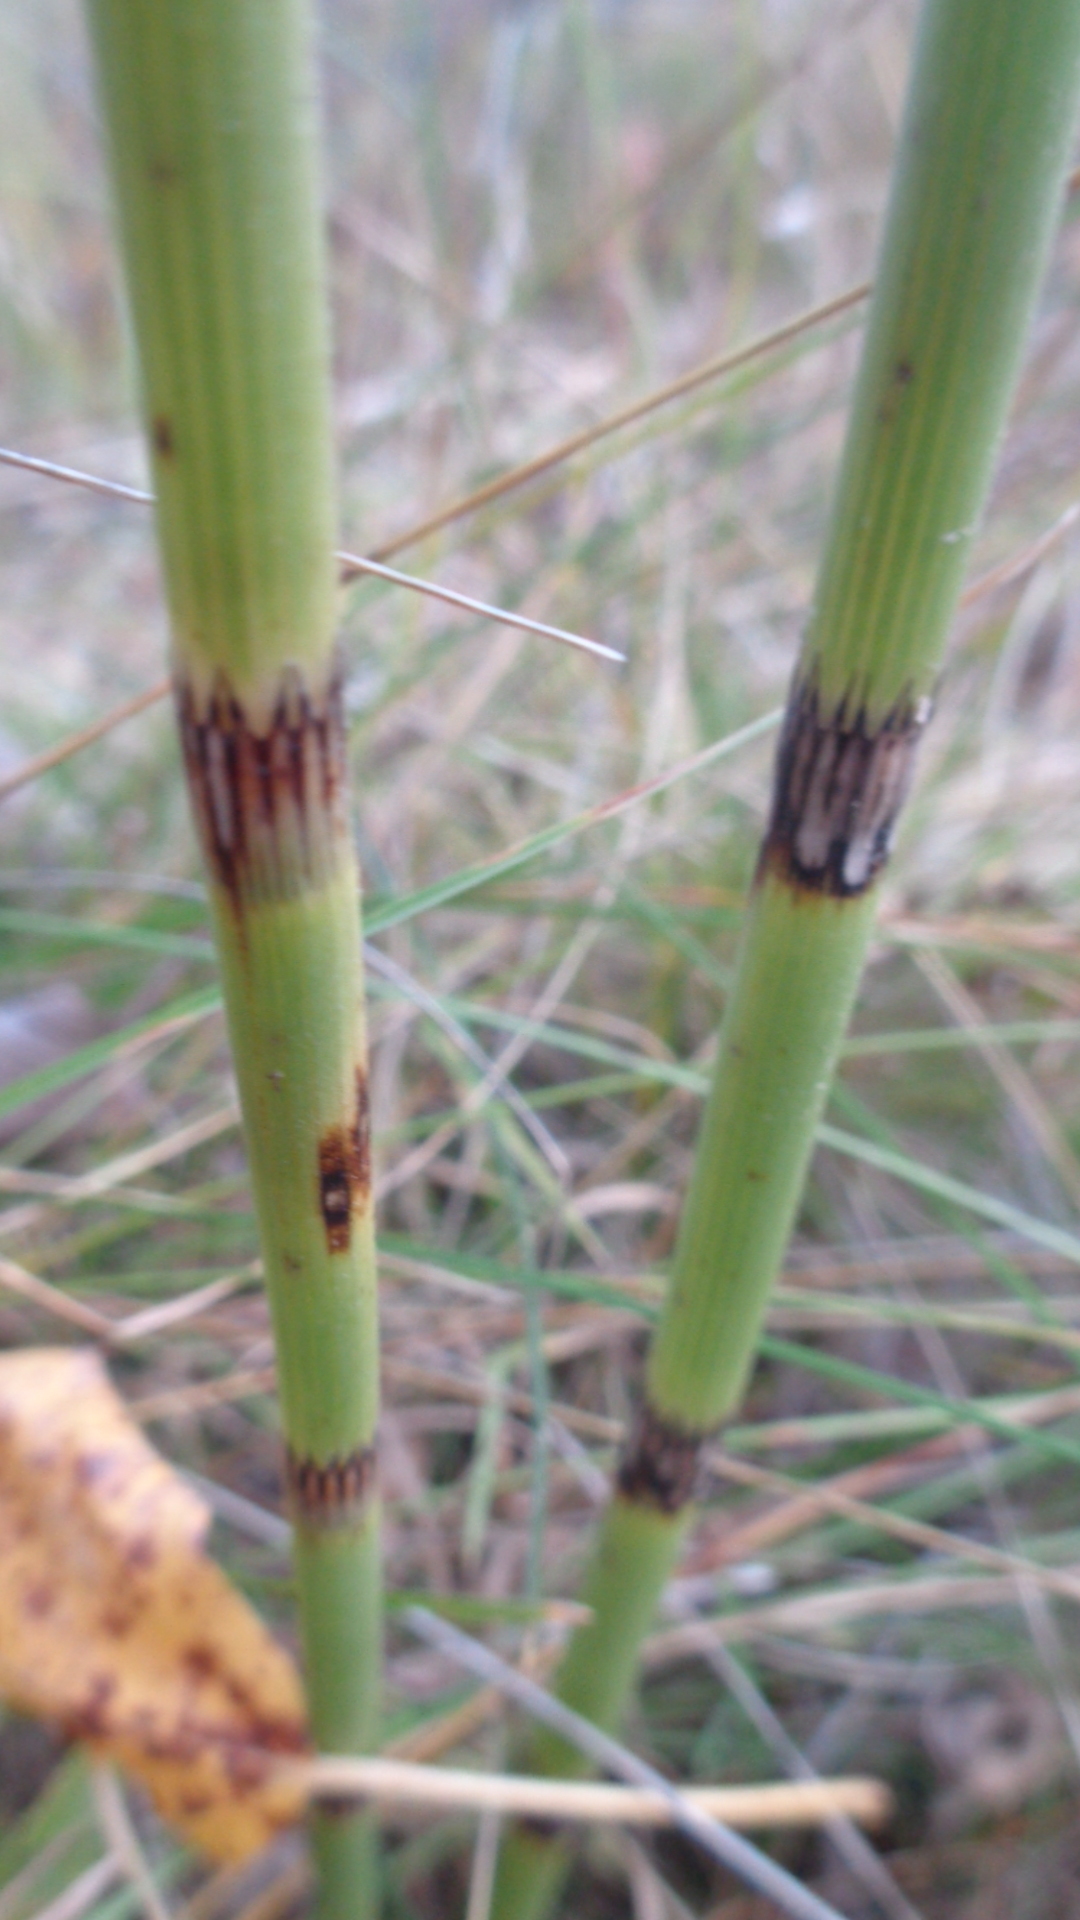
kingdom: Plantae
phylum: Tracheophyta
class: Polypodiopsida
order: Equisetales
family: Equisetaceae
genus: Equisetum
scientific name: Equisetum fluviatile
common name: Water horsetail
